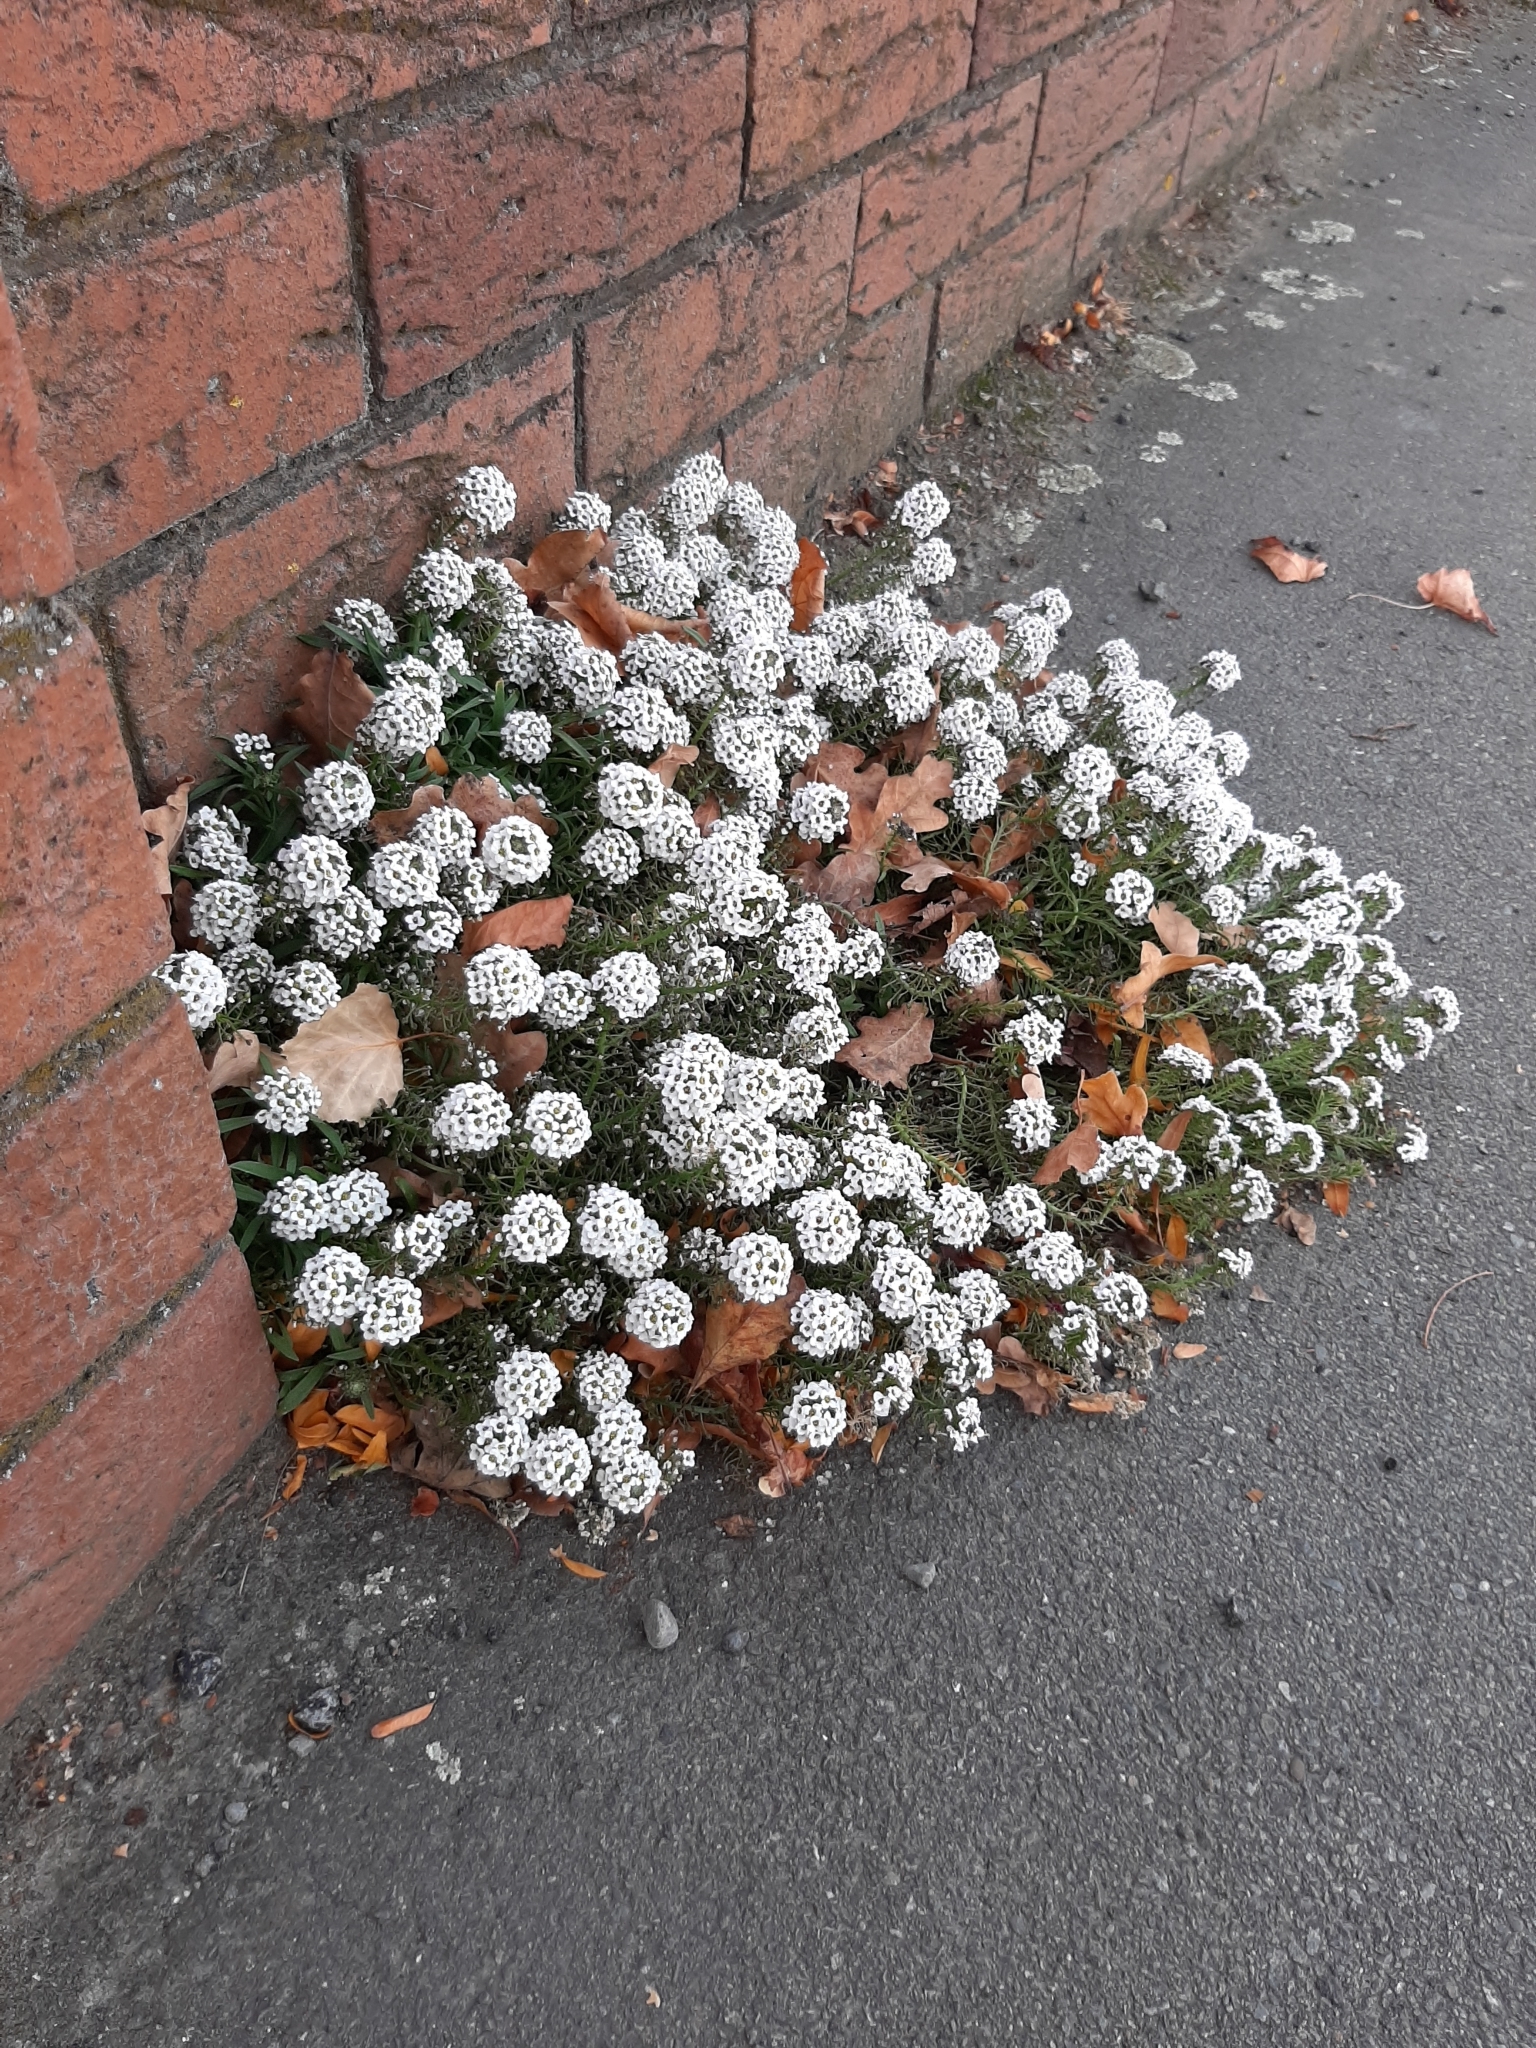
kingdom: Plantae
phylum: Tracheophyta
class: Magnoliopsida
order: Brassicales
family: Brassicaceae
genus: Lobularia
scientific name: Lobularia maritima
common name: Sweet alison
